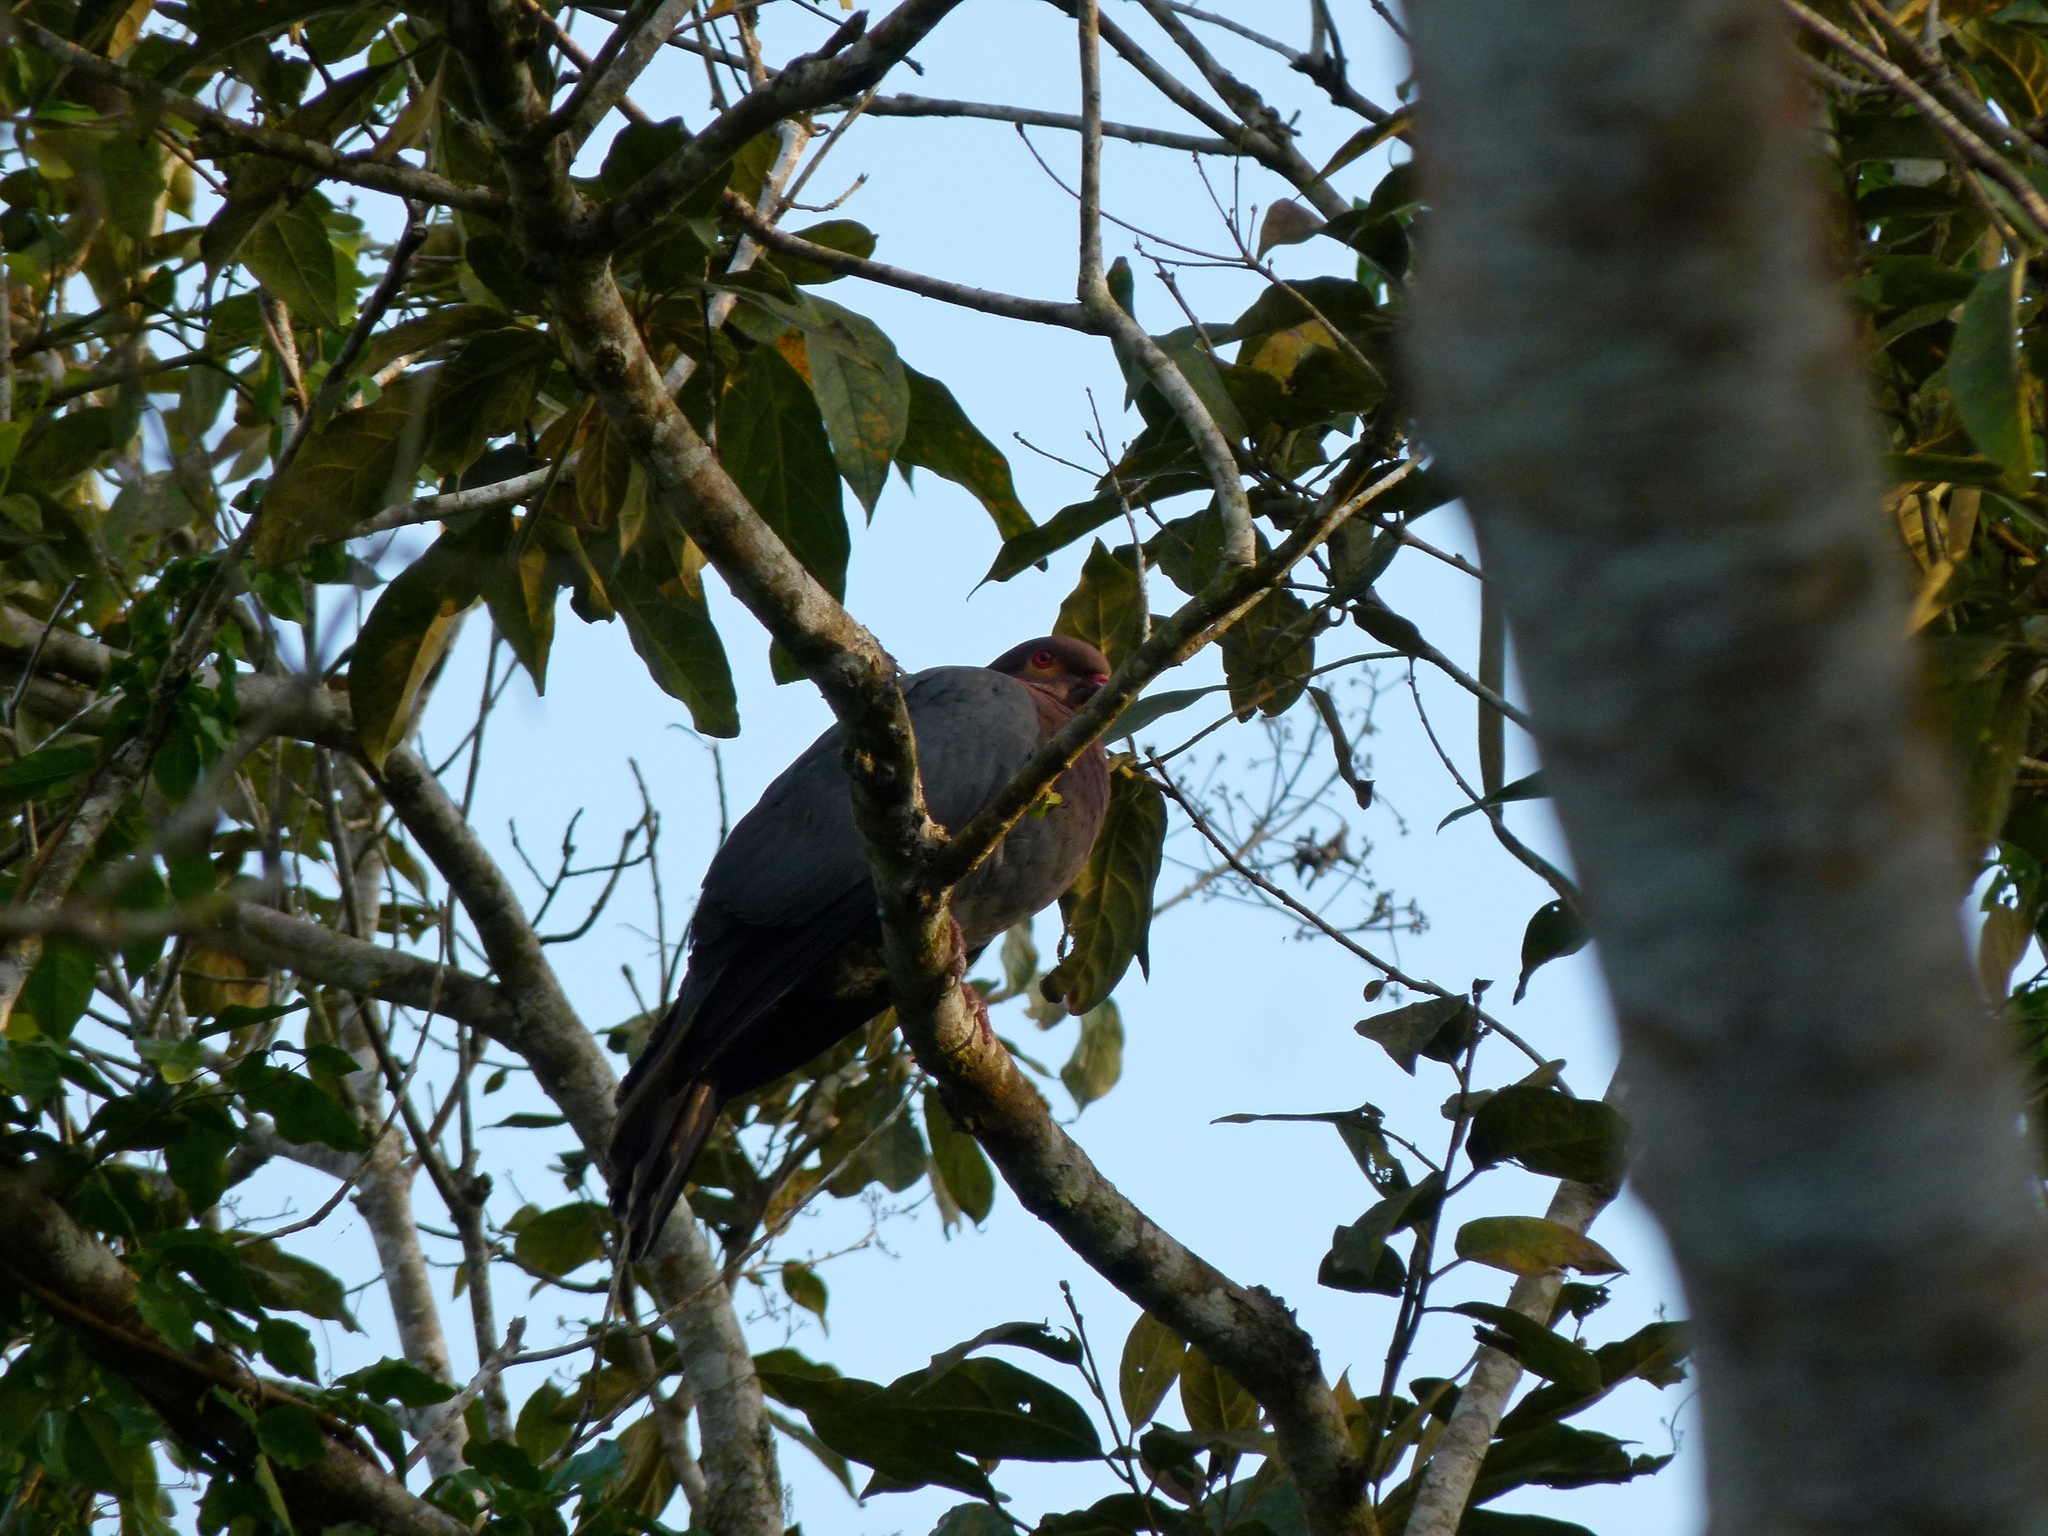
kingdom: Animalia
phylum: Chordata
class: Aves
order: Columbiformes
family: Columbidae
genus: Patagioenas
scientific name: Patagioenas squamosa
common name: Scaly-naped pigeon
